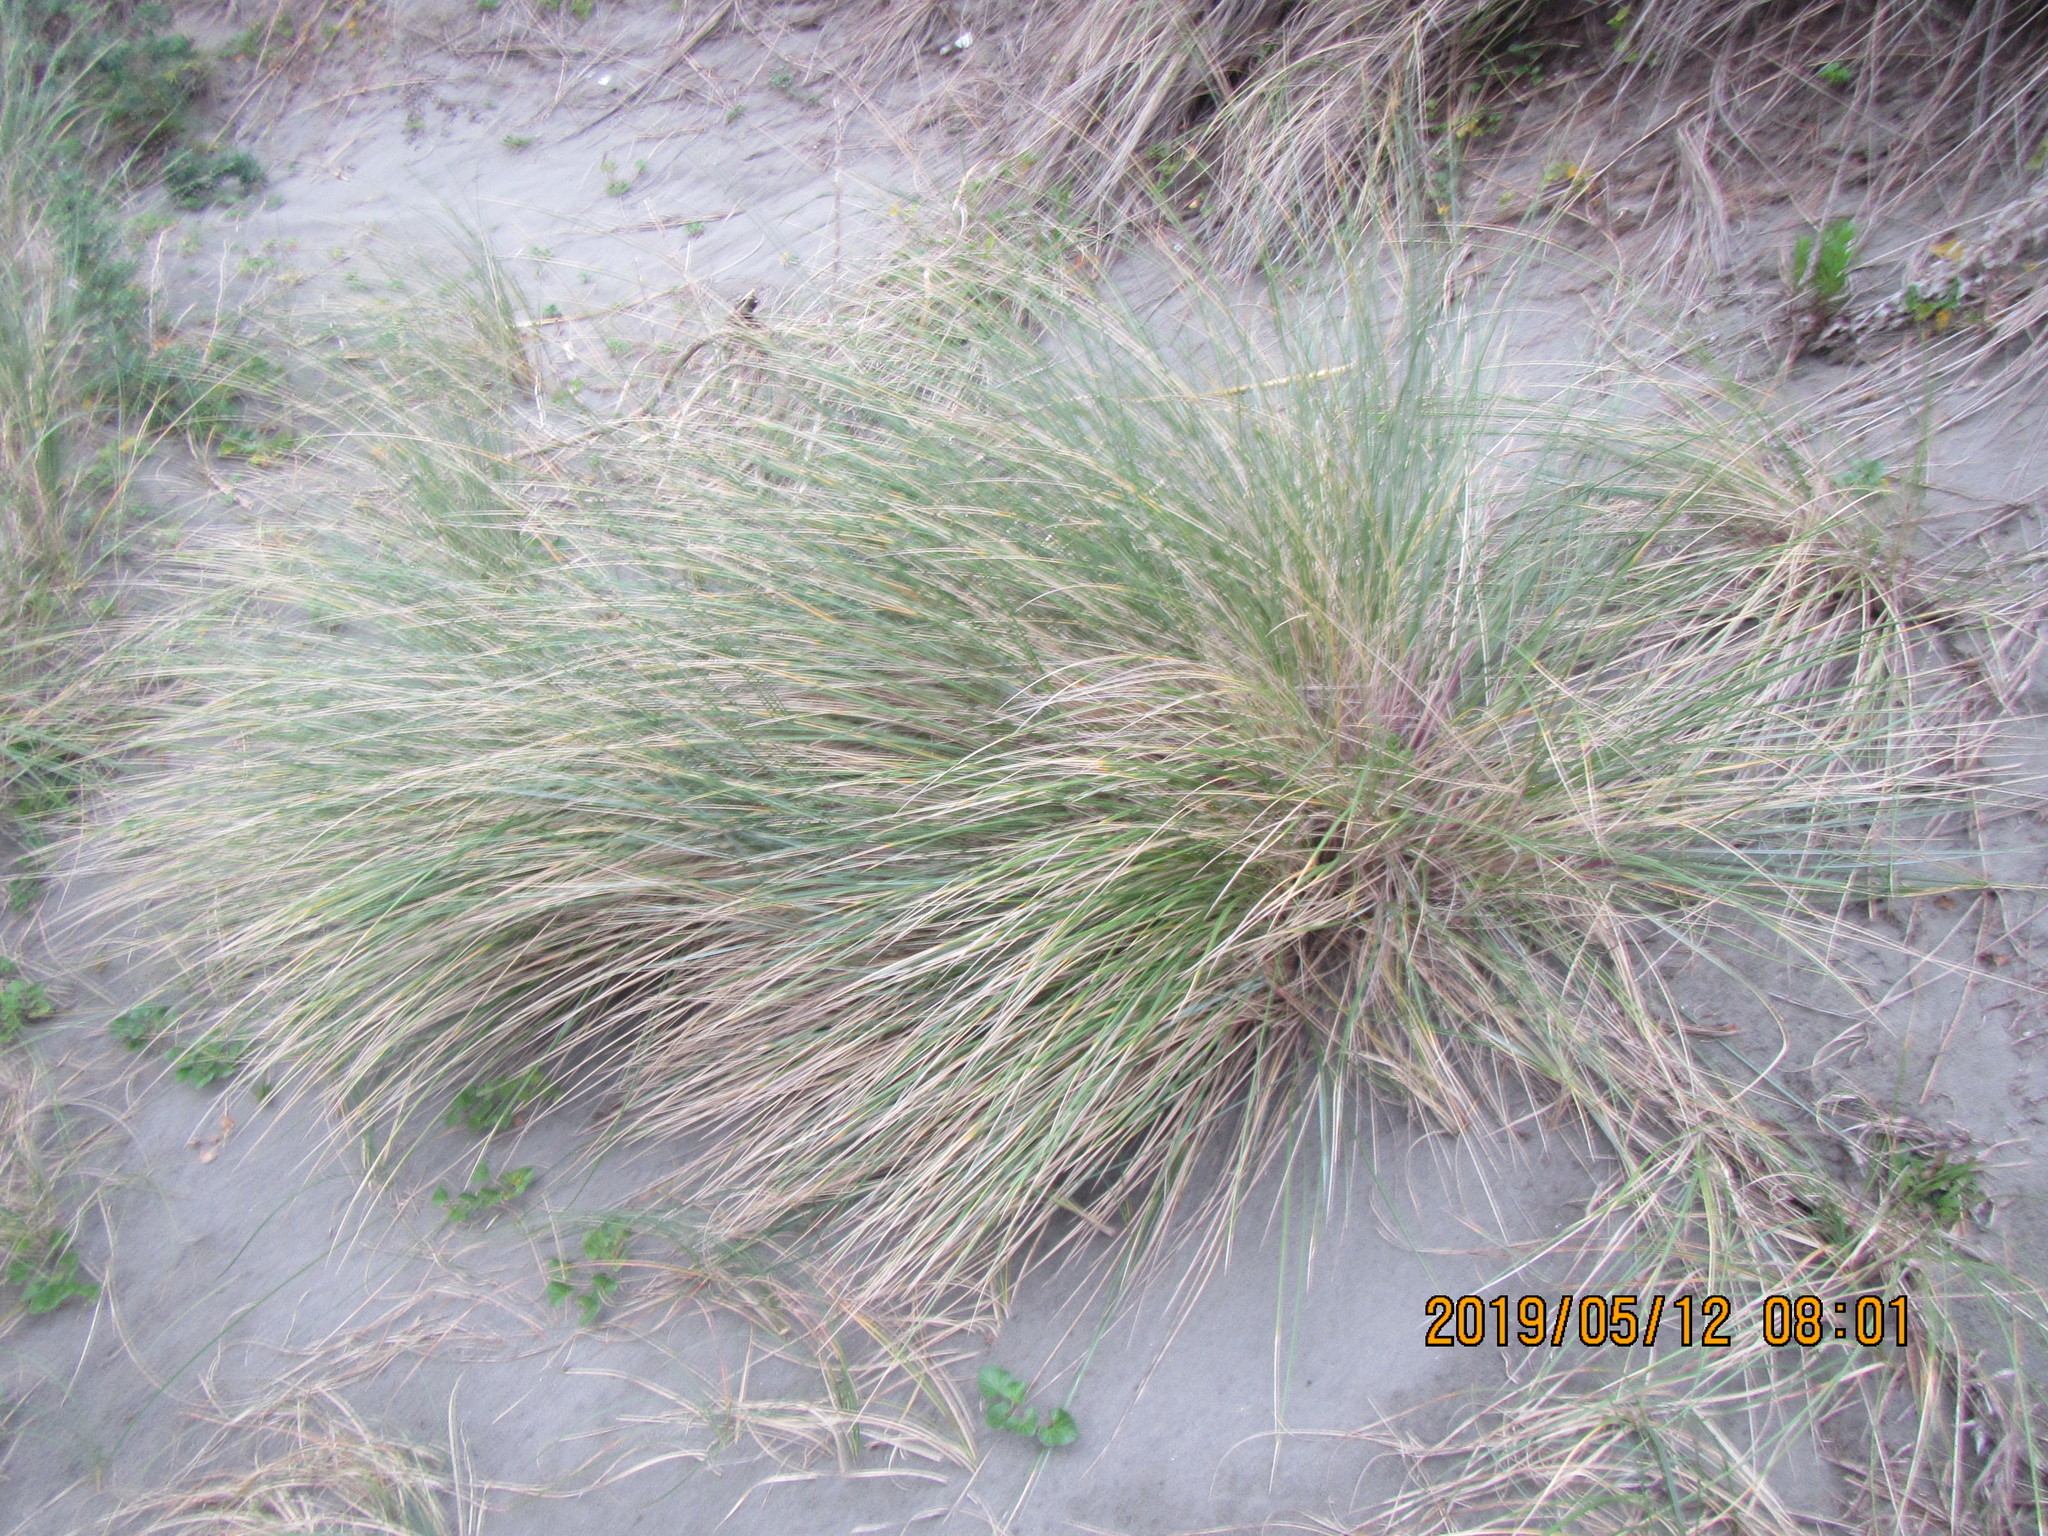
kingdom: Plantae
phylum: Tracheophyta
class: Liliopsida
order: Poales
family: Poaceae
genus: Calamagrostis
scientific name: Calamagrostis arenaria
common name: European beachgrass
